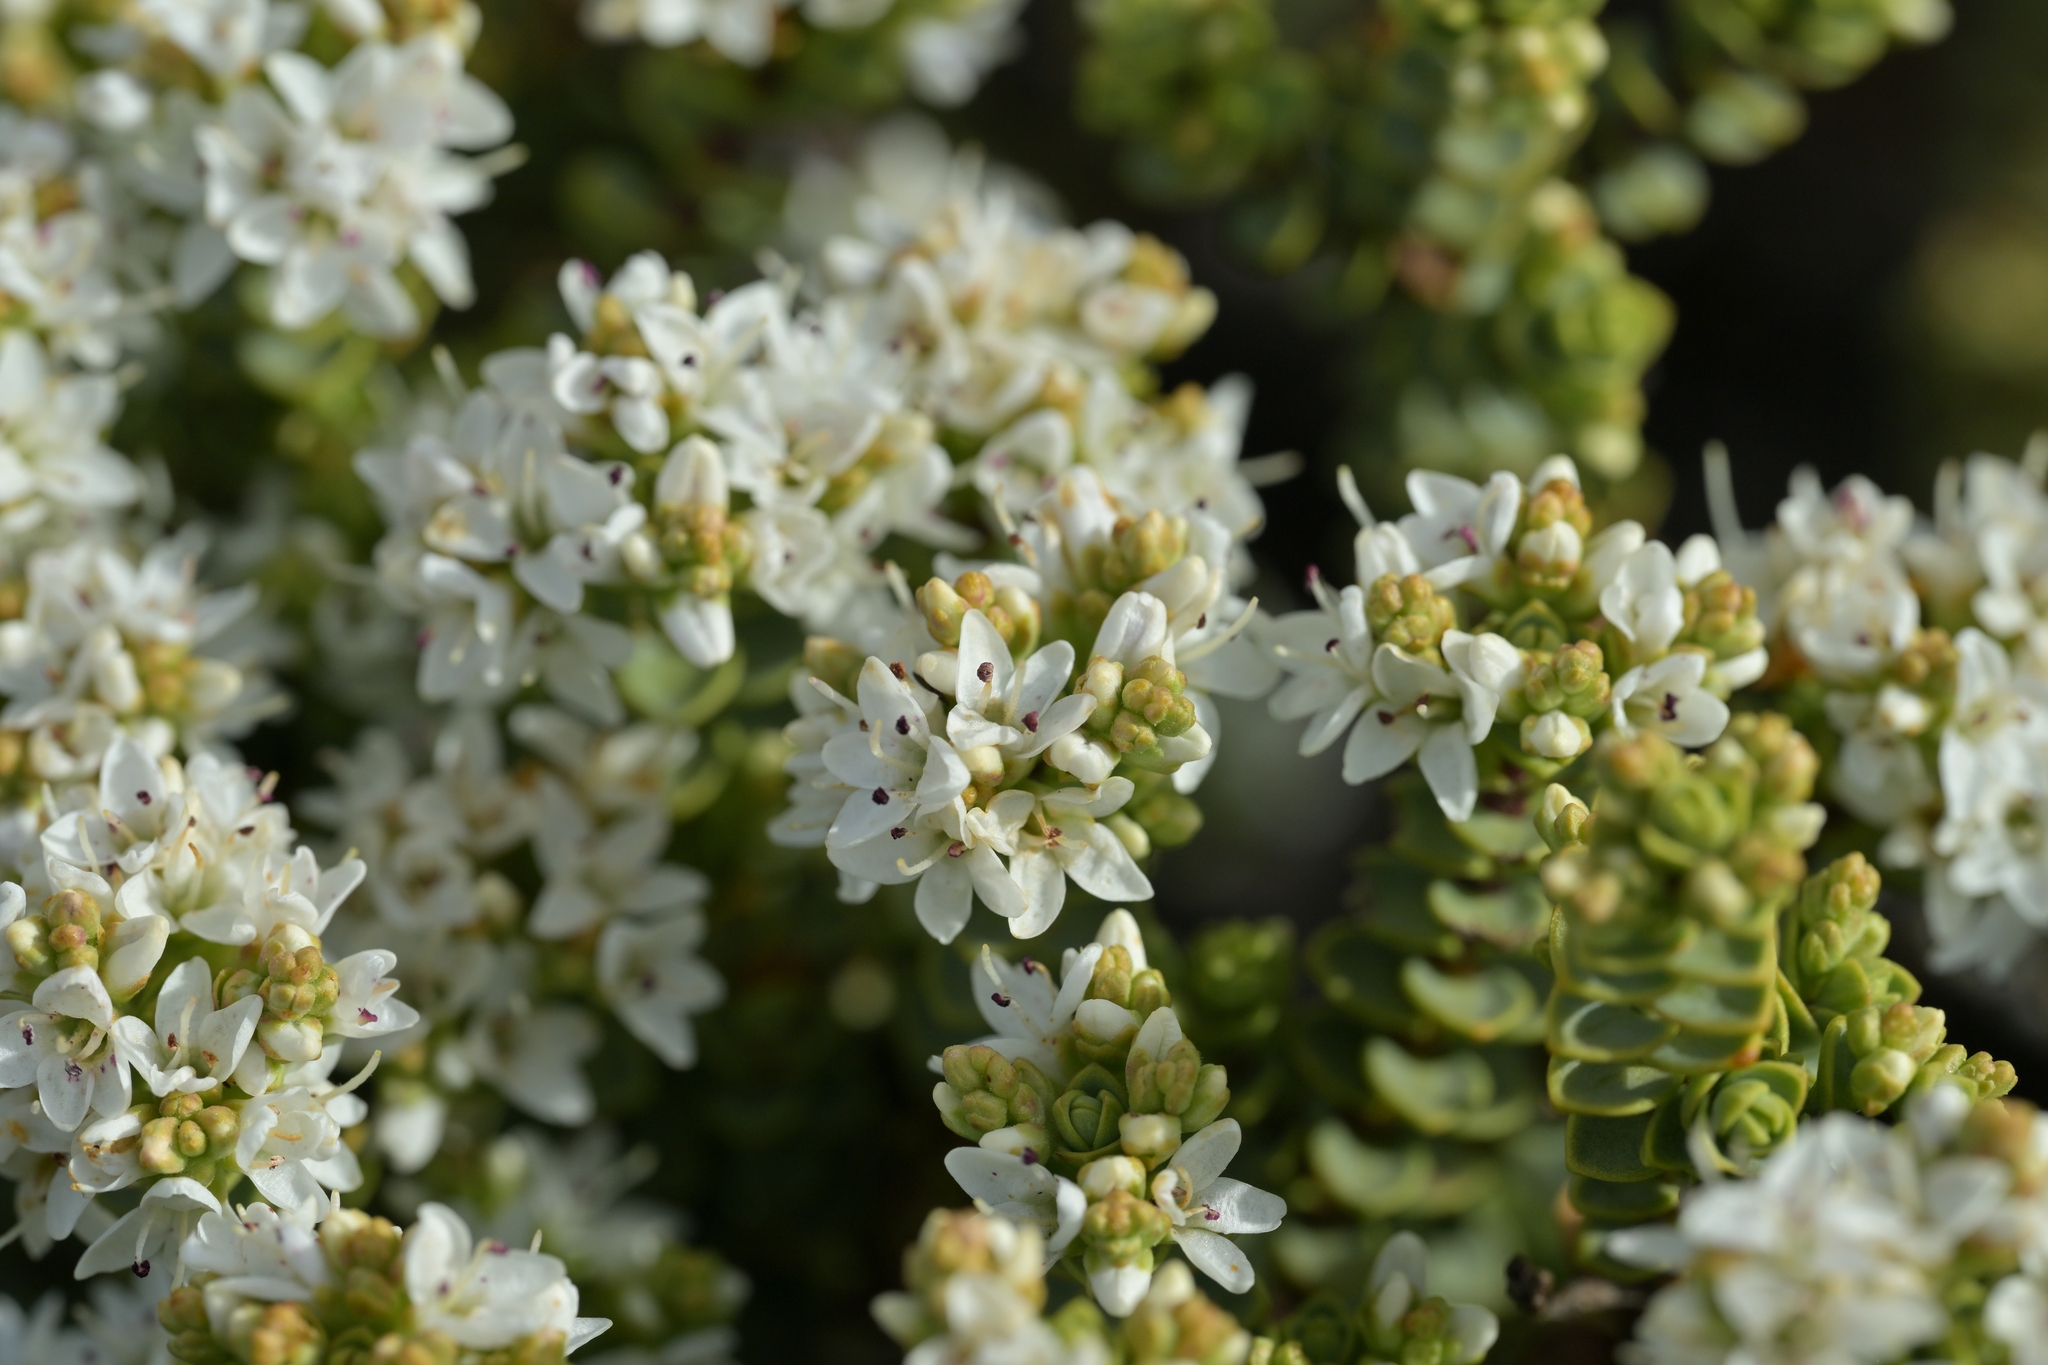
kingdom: Plantae
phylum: Tracheophyta
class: Magnoliopsida
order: Lamiales
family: Plantaginaceae
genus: Veronica
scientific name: Veronica buchananii
